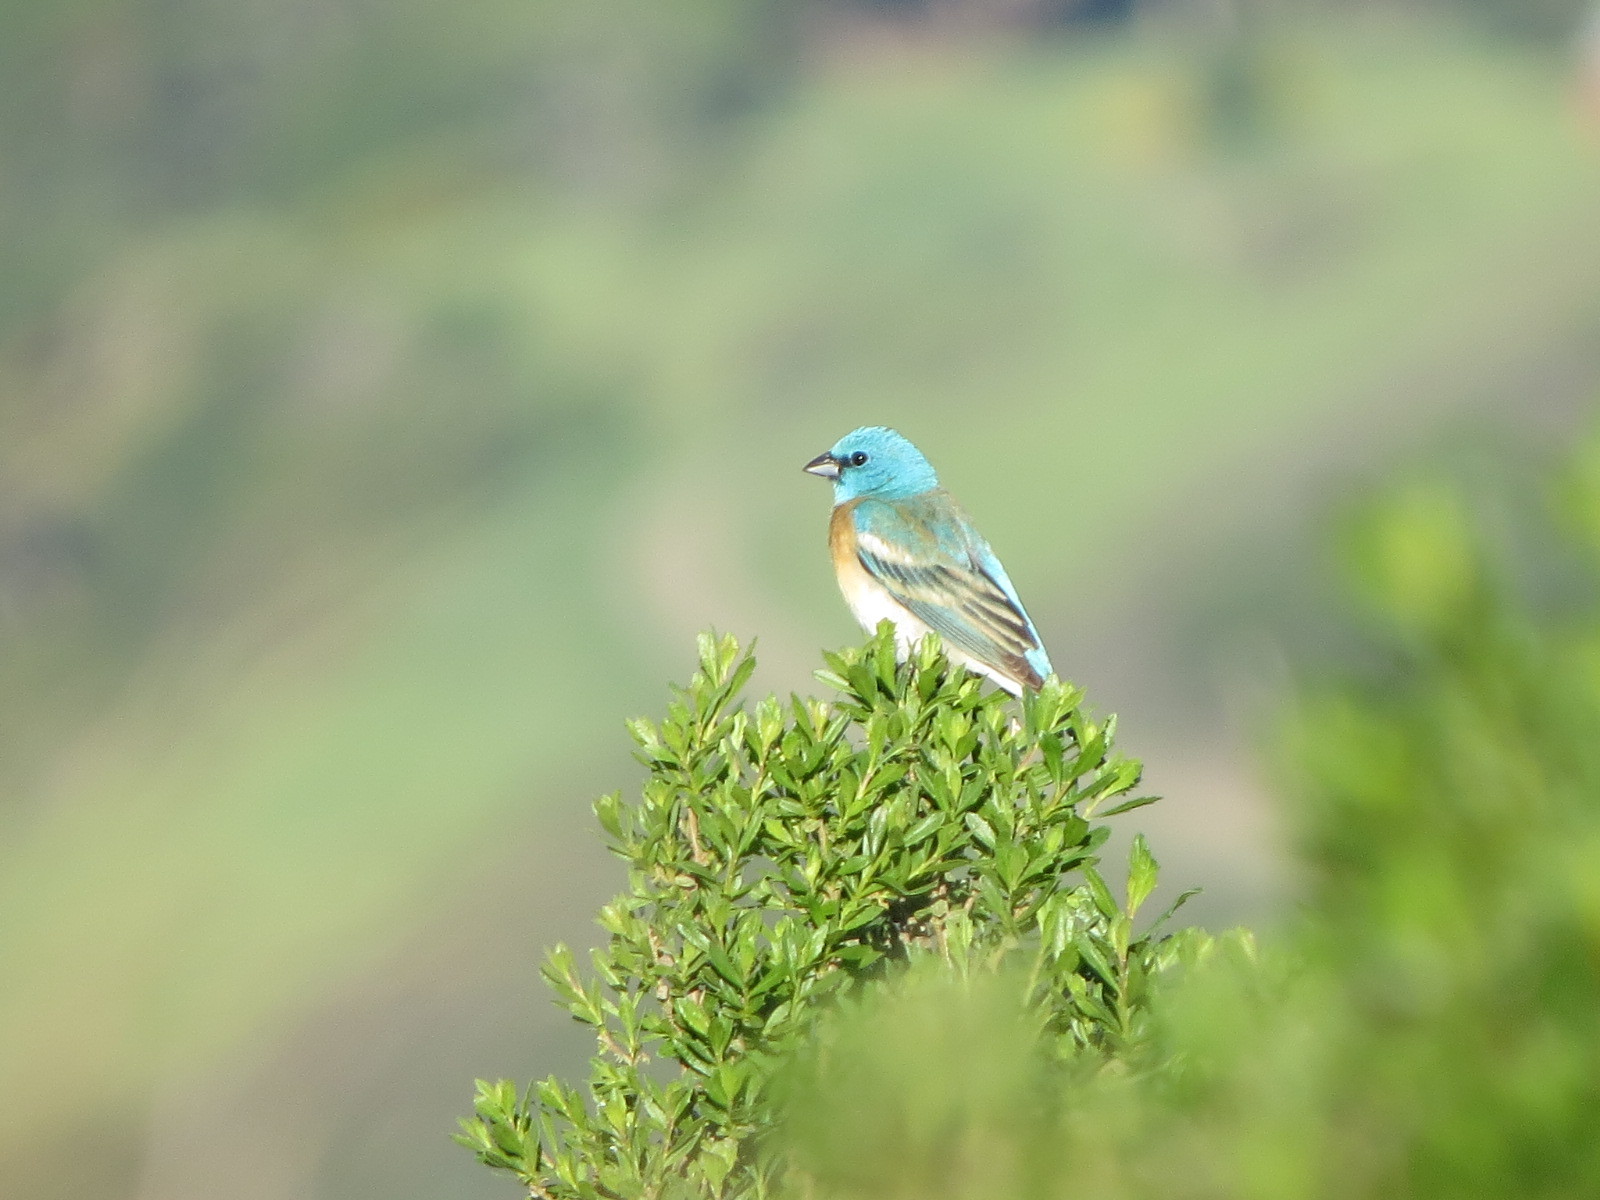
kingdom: Animalia
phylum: Chordata
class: Aves
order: Passeriformes
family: Cardinalidae
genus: Passerina
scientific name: Passerina amoena
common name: Lazuli bunting
